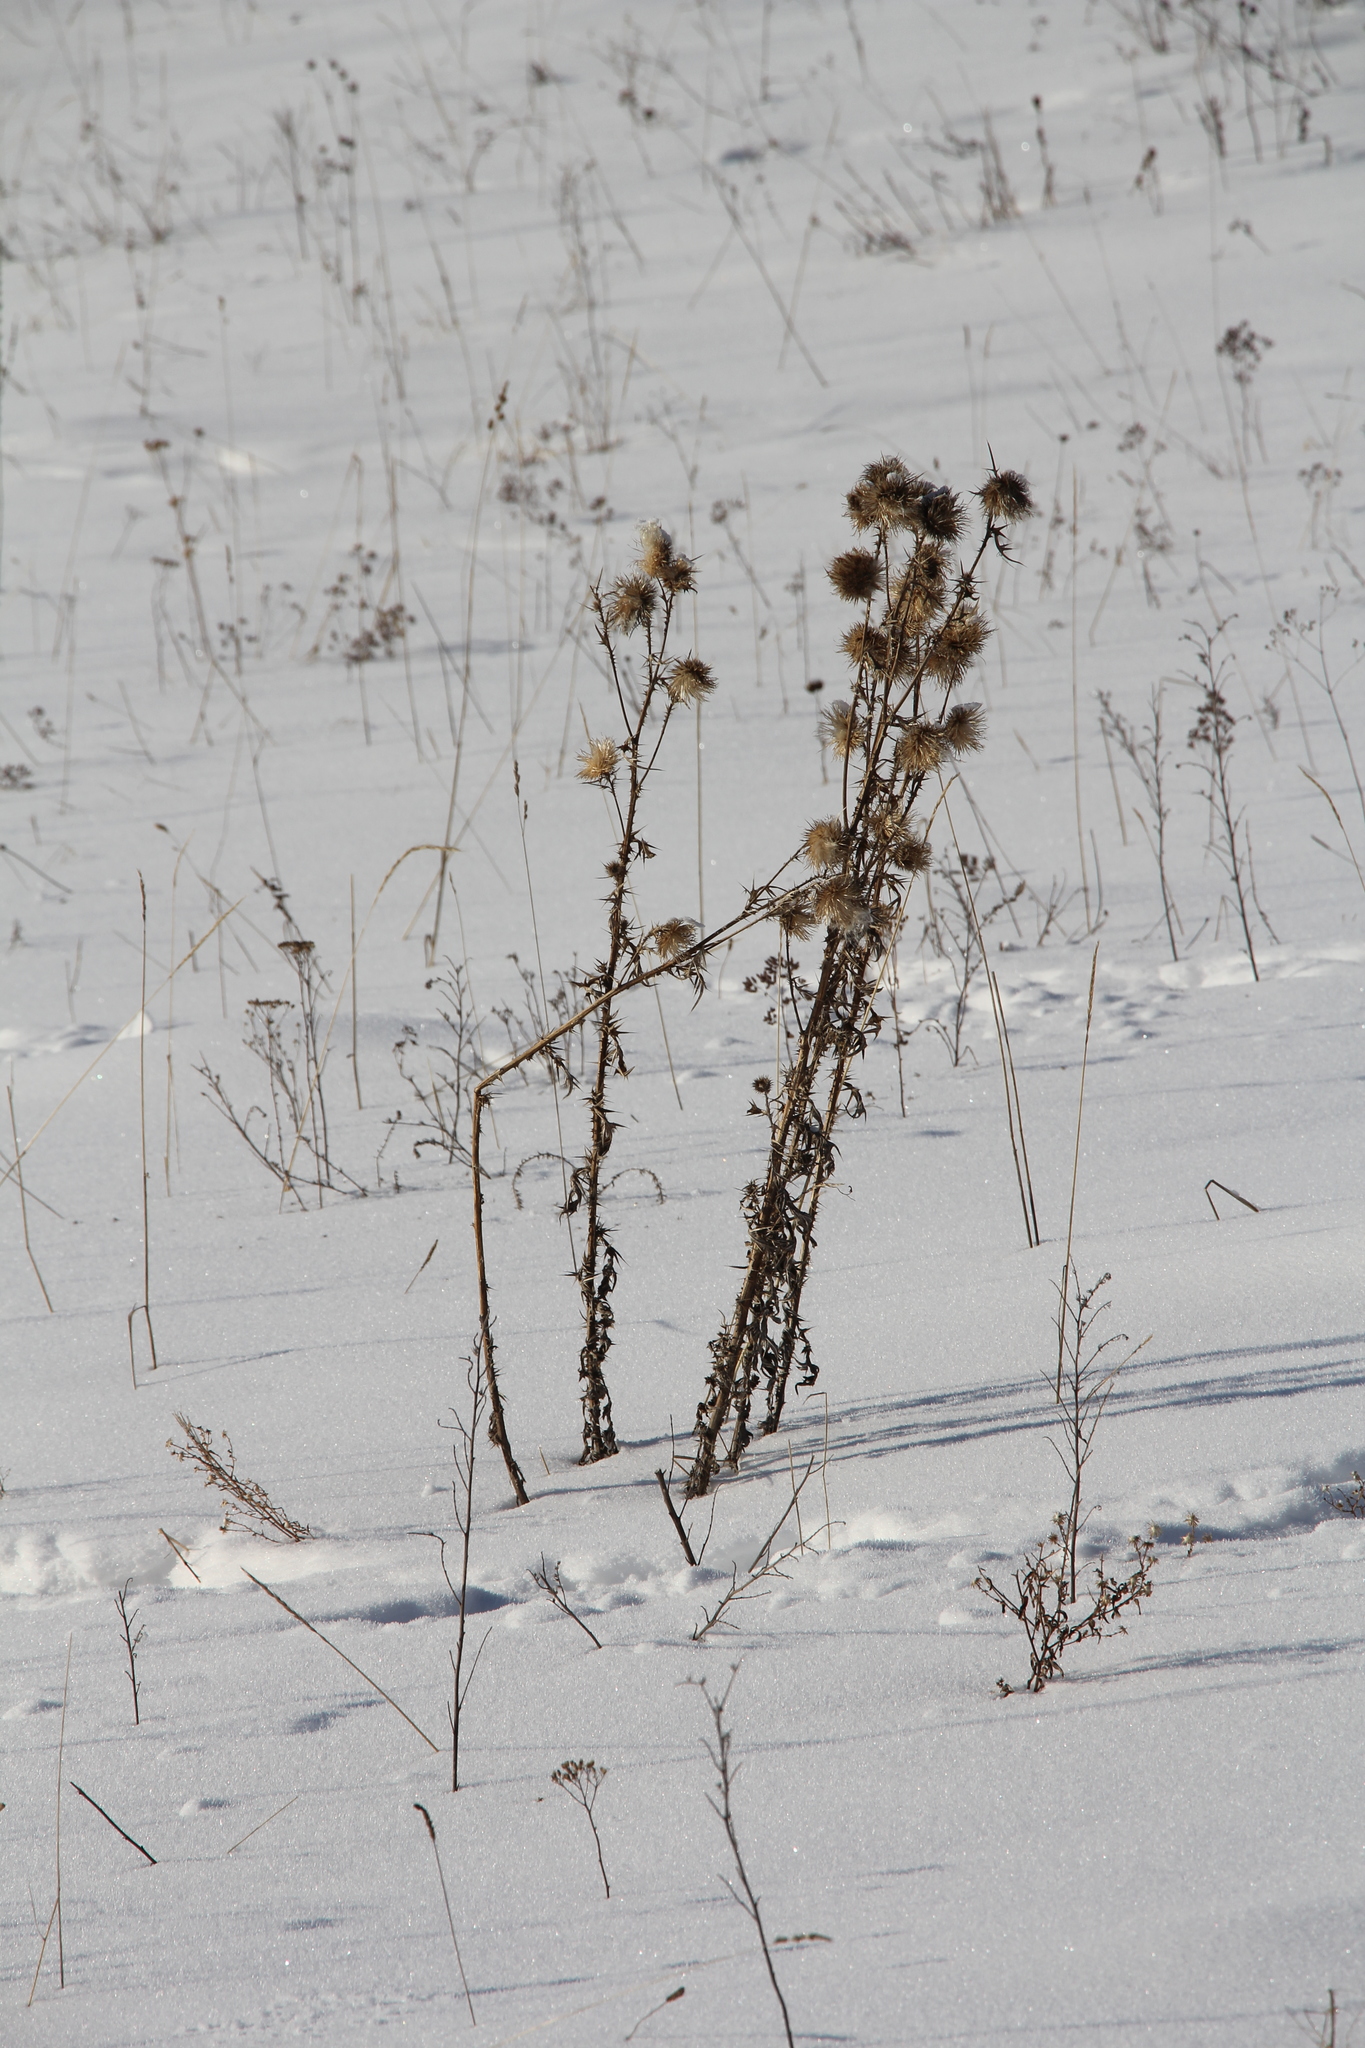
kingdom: Plantae
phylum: Tracheophyta
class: Magnoliopsida
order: Asterales
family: Asteraceae
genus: Cirsium
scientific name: Cirsium vulgare
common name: Bull thistle
